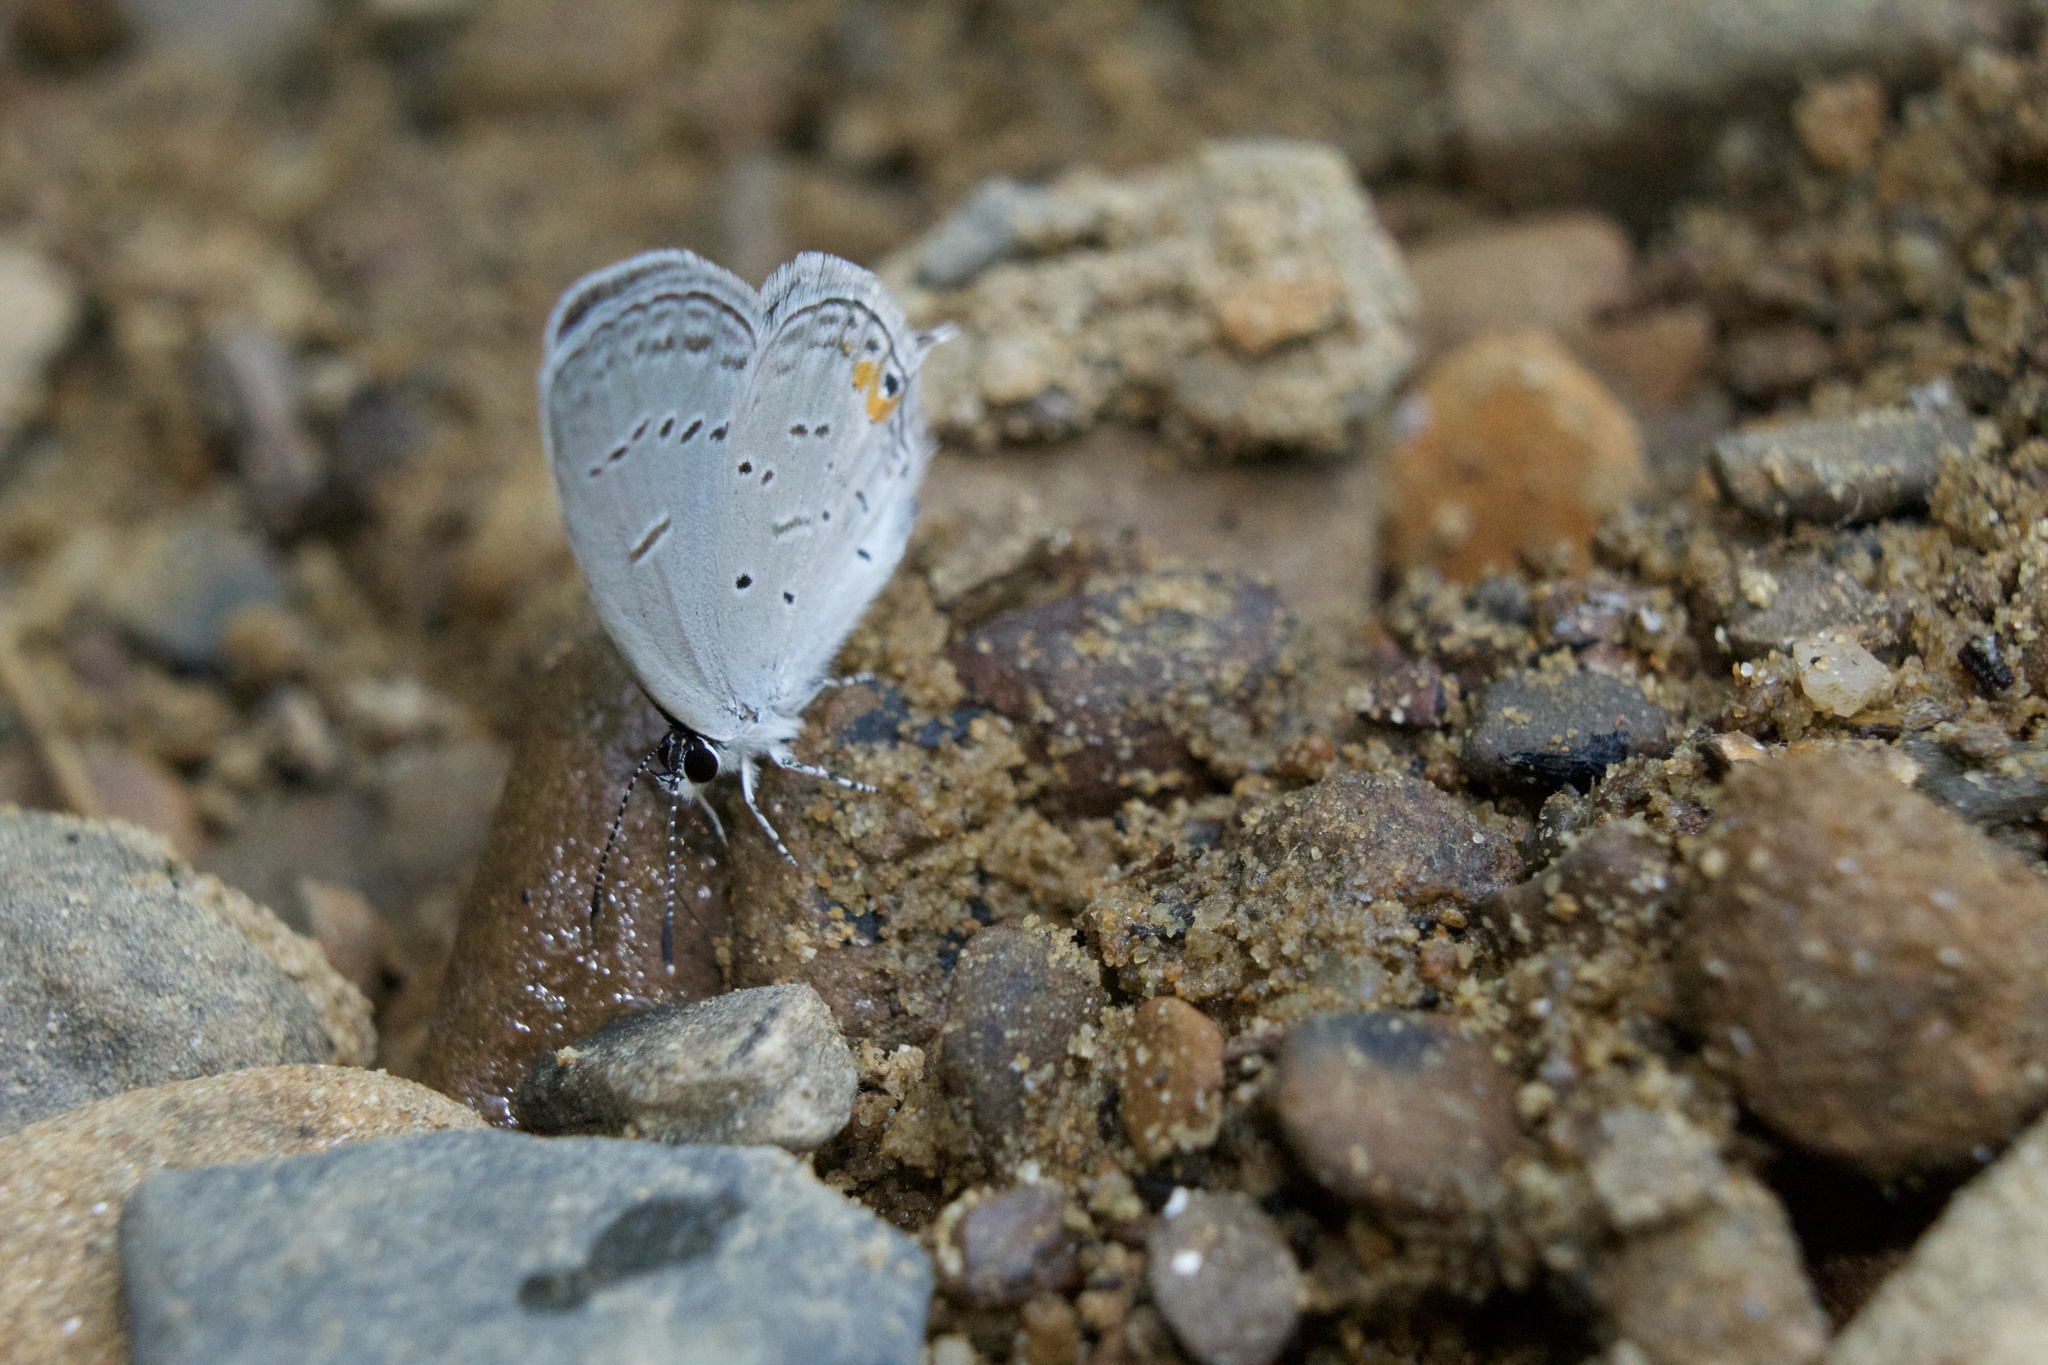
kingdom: Animalia
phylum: Arthropoda
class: Insecta
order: Lepidoptera
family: Lycaenidae
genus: Elkalyce
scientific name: Elkalyce comyntas
